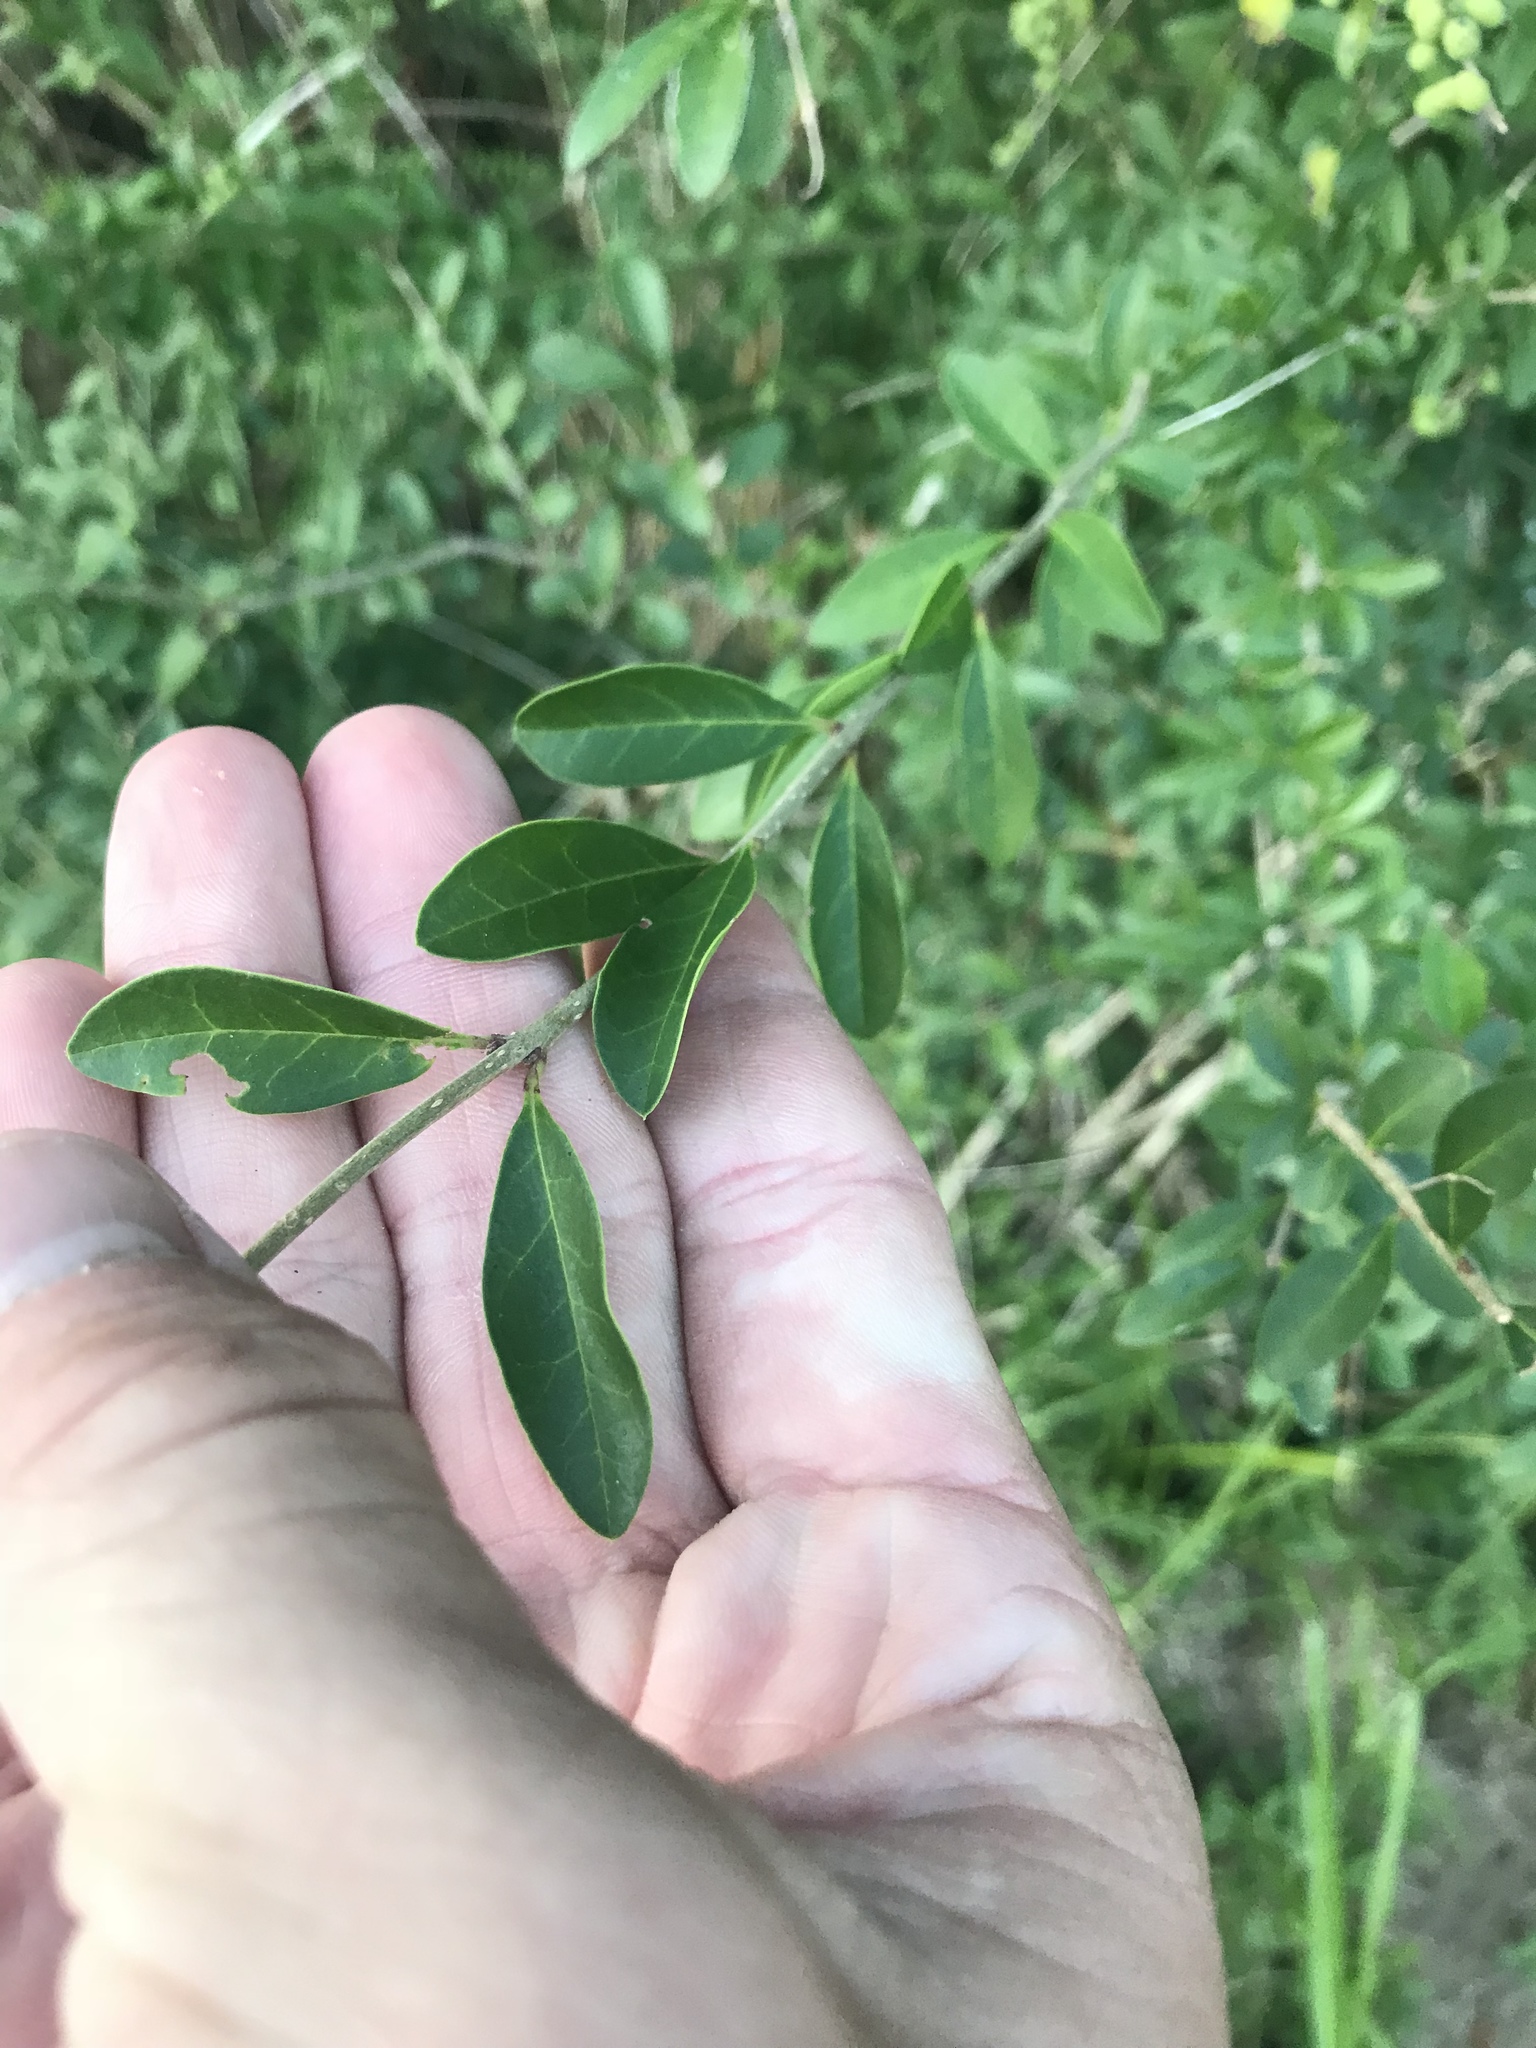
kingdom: Plantae
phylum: Tracheophyta
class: Magnoliopsida
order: Lamiales
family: Oleaceae
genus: Ligustrum
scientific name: Ligustrum quihoui
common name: Waxyleaf privet
